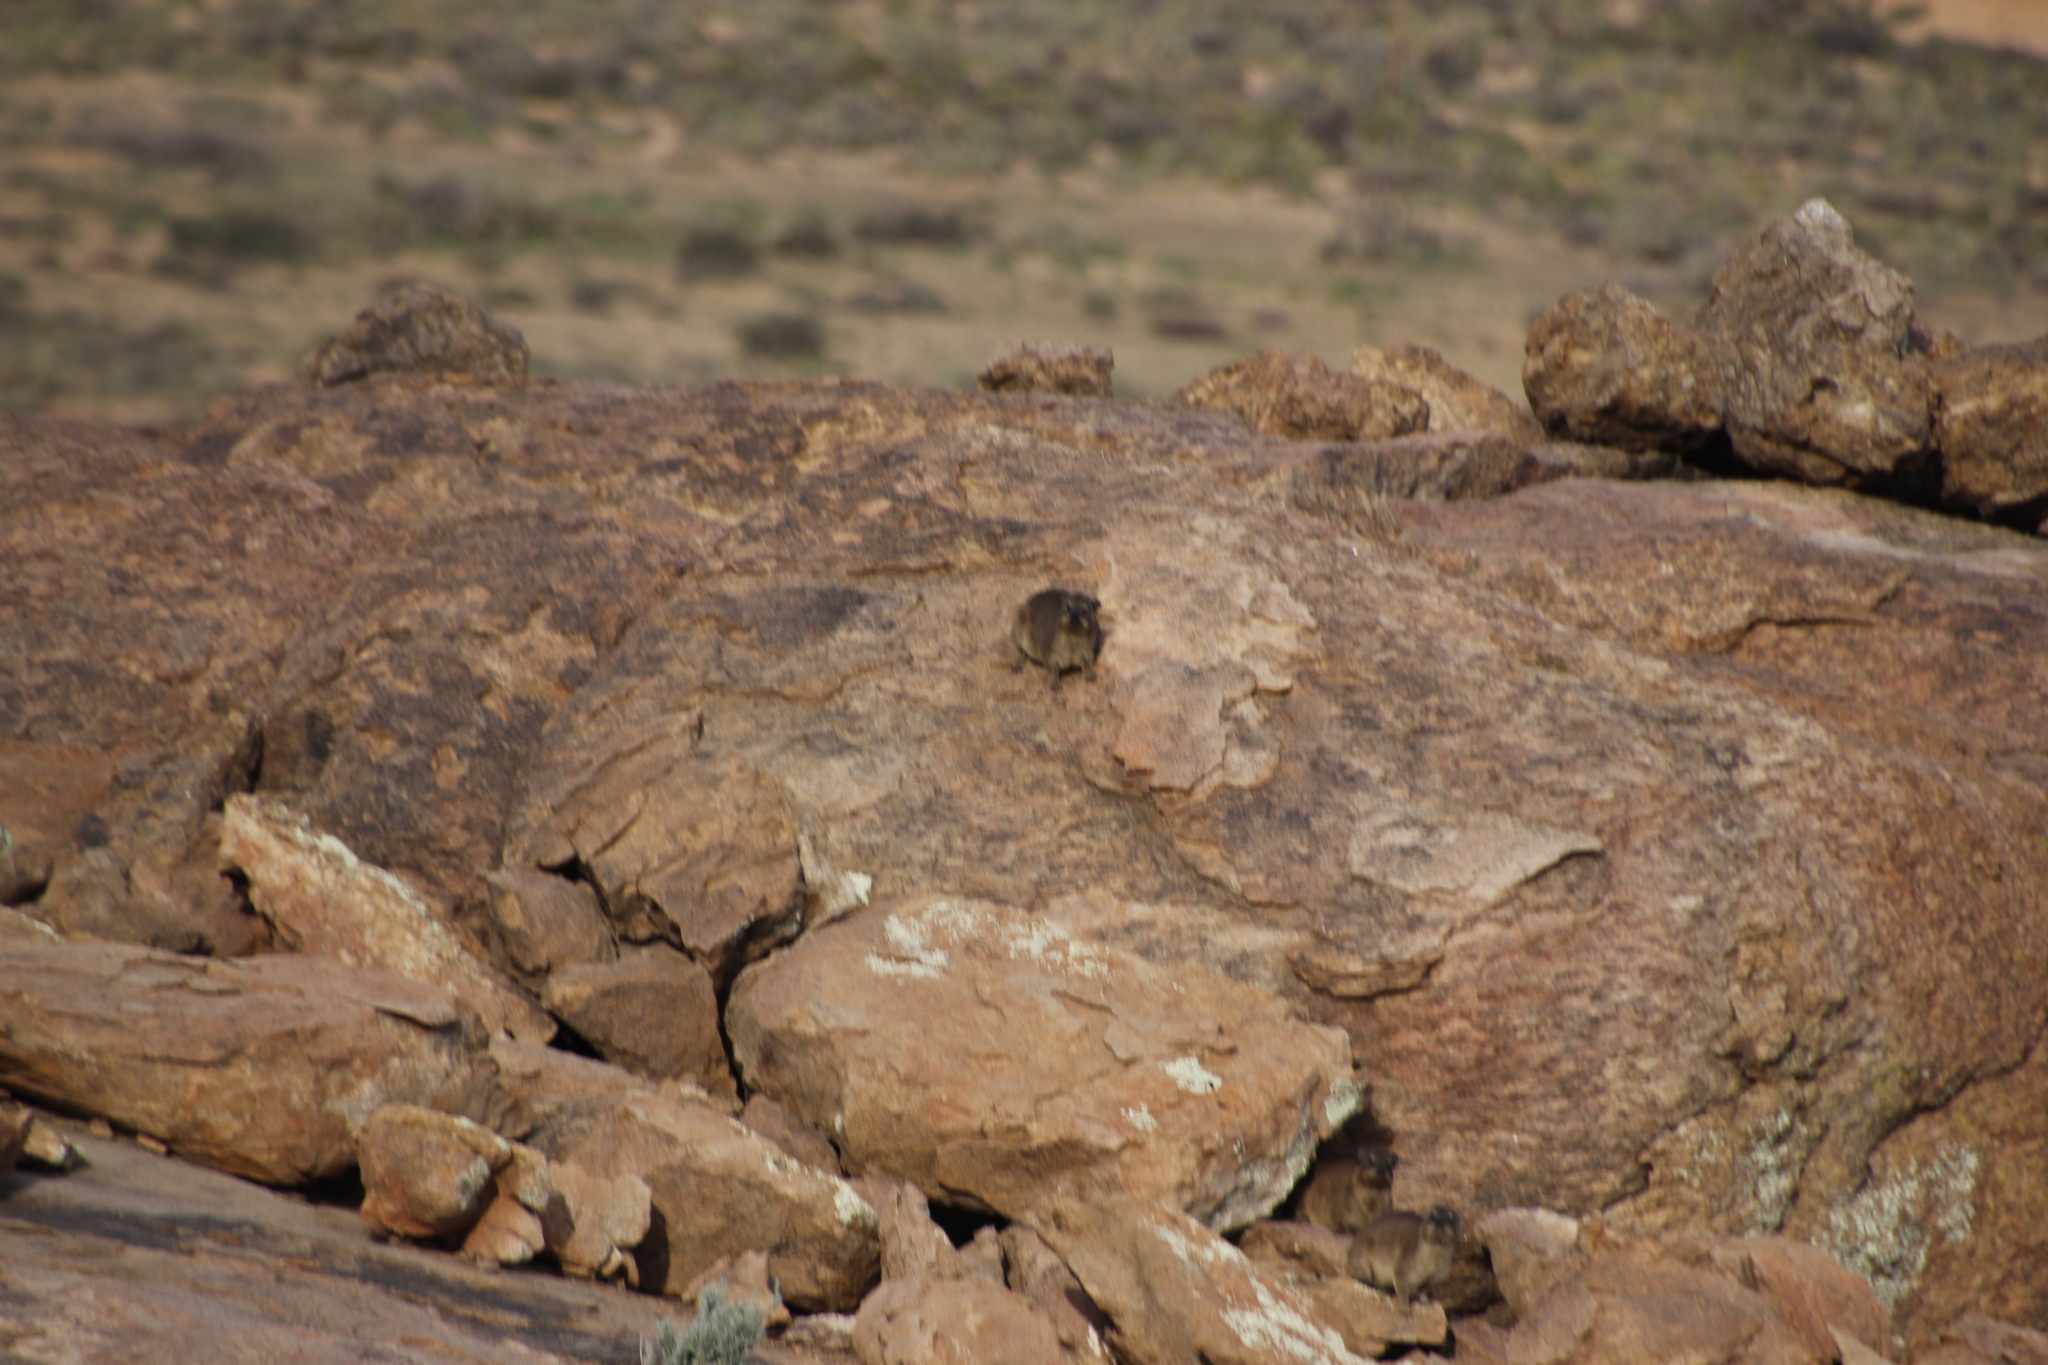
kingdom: Animalia
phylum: Chordata
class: Mammalia
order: Hyracoidea
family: Procaviidae
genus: Procavia
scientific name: Procavia capensis
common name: Rock hyrax
